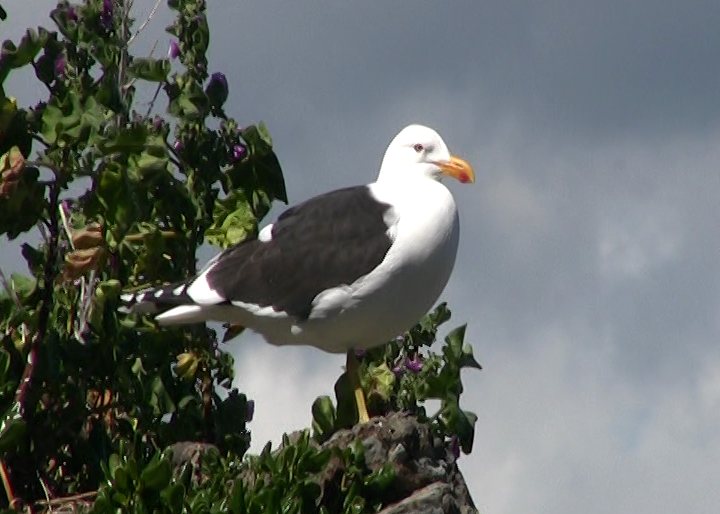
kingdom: Animalia
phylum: Chordata
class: Aves
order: Charadriiformes
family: Laridae
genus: Larus
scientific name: Larus dominicanus
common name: Kelp gull
